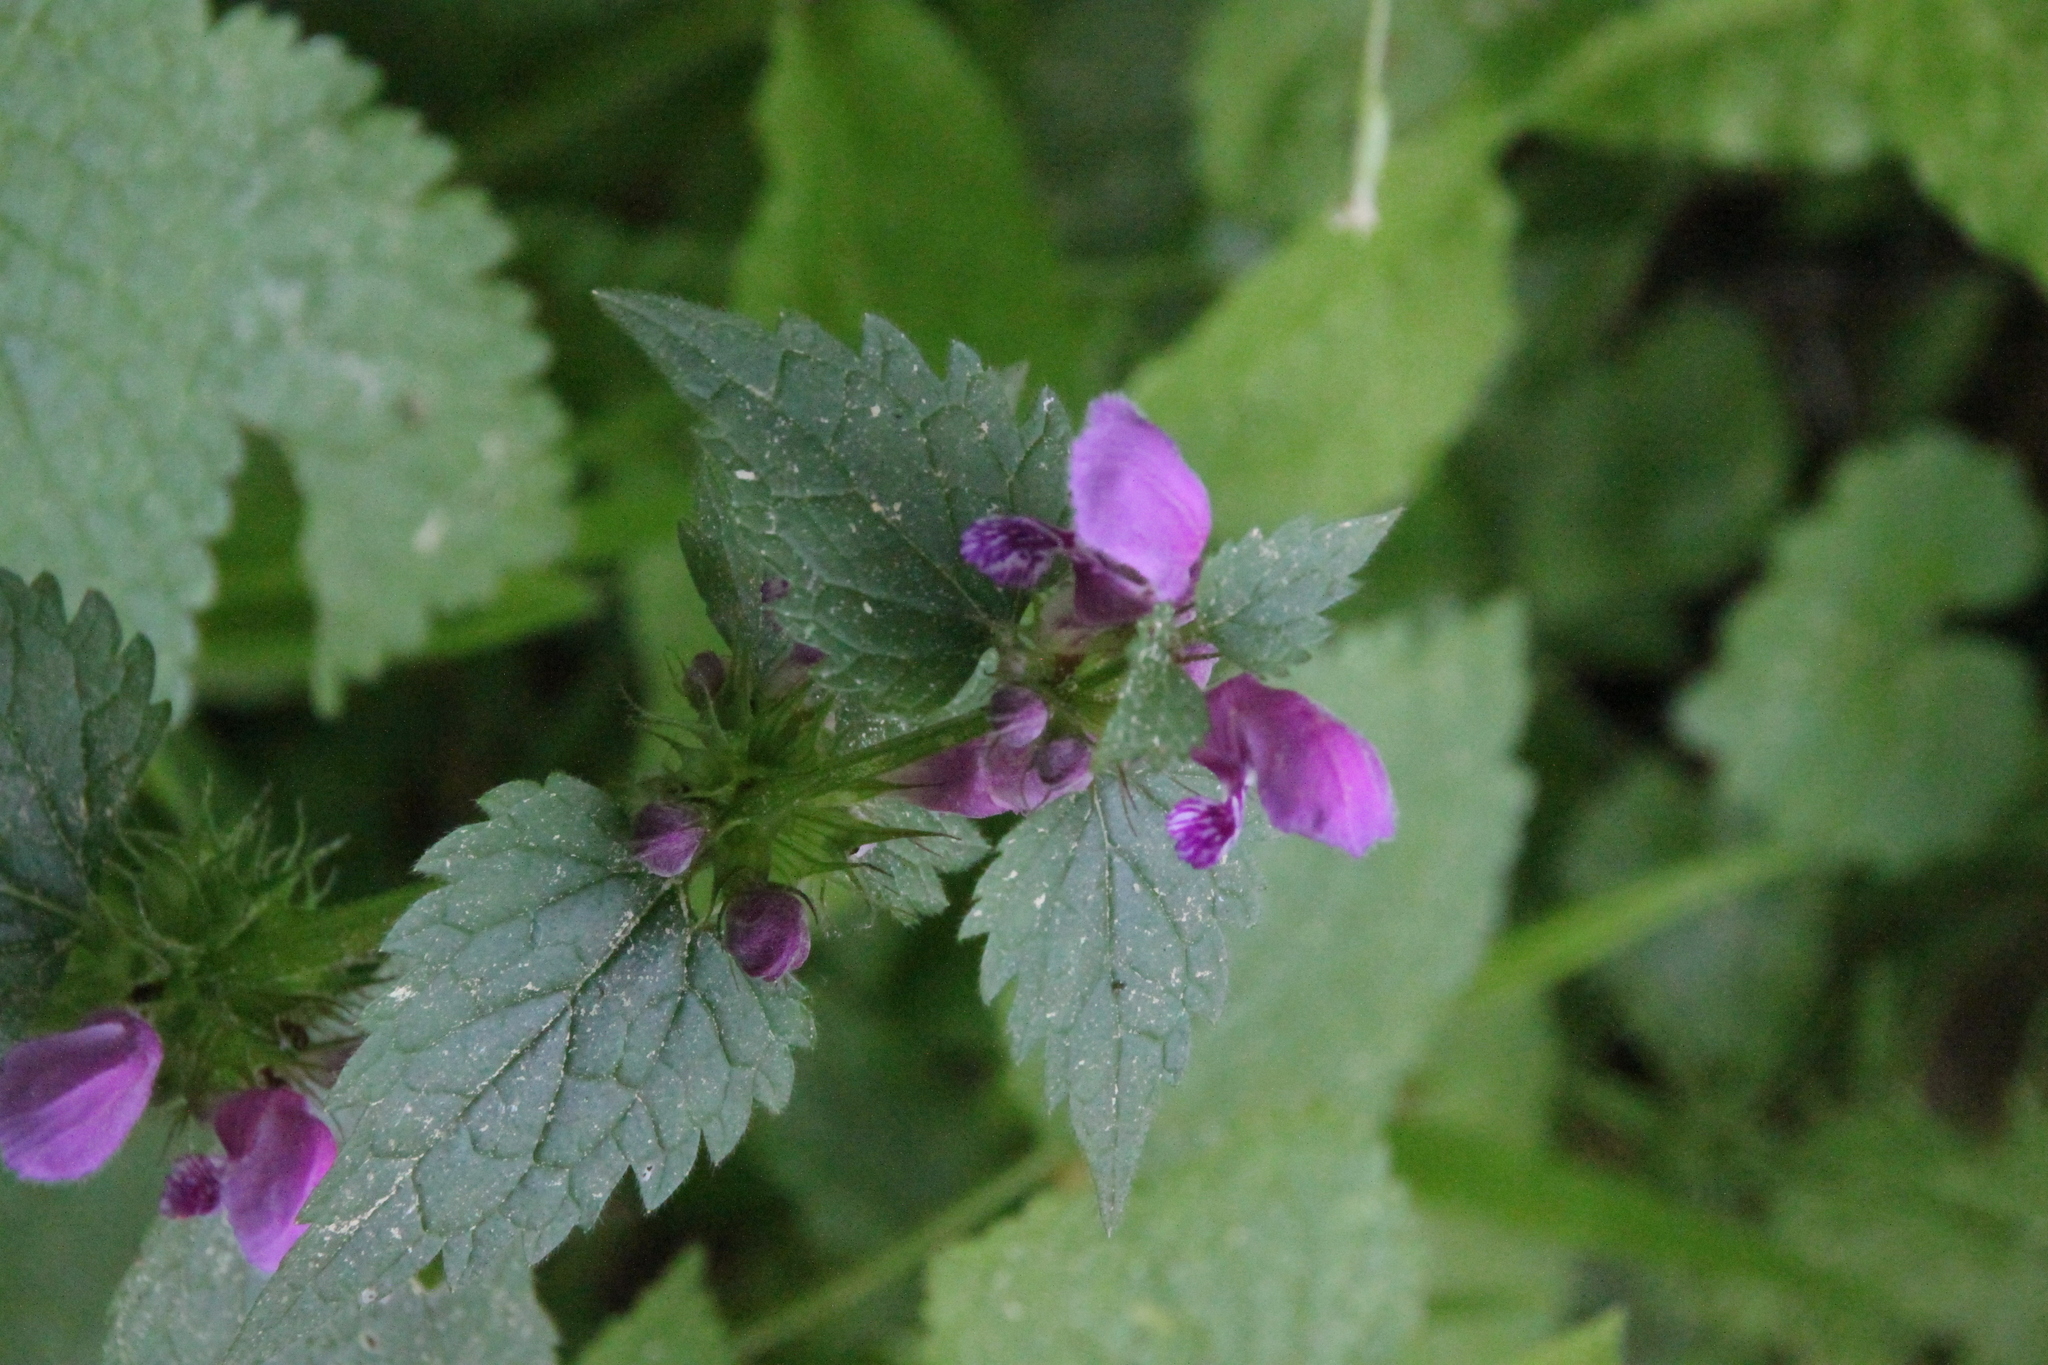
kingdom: Plantae
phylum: Tracheophyta
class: Magnoliopsida
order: Lamiales
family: Lamiaceae
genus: Lamium
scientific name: Lamium maculatum
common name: Spotted dead-nettle
